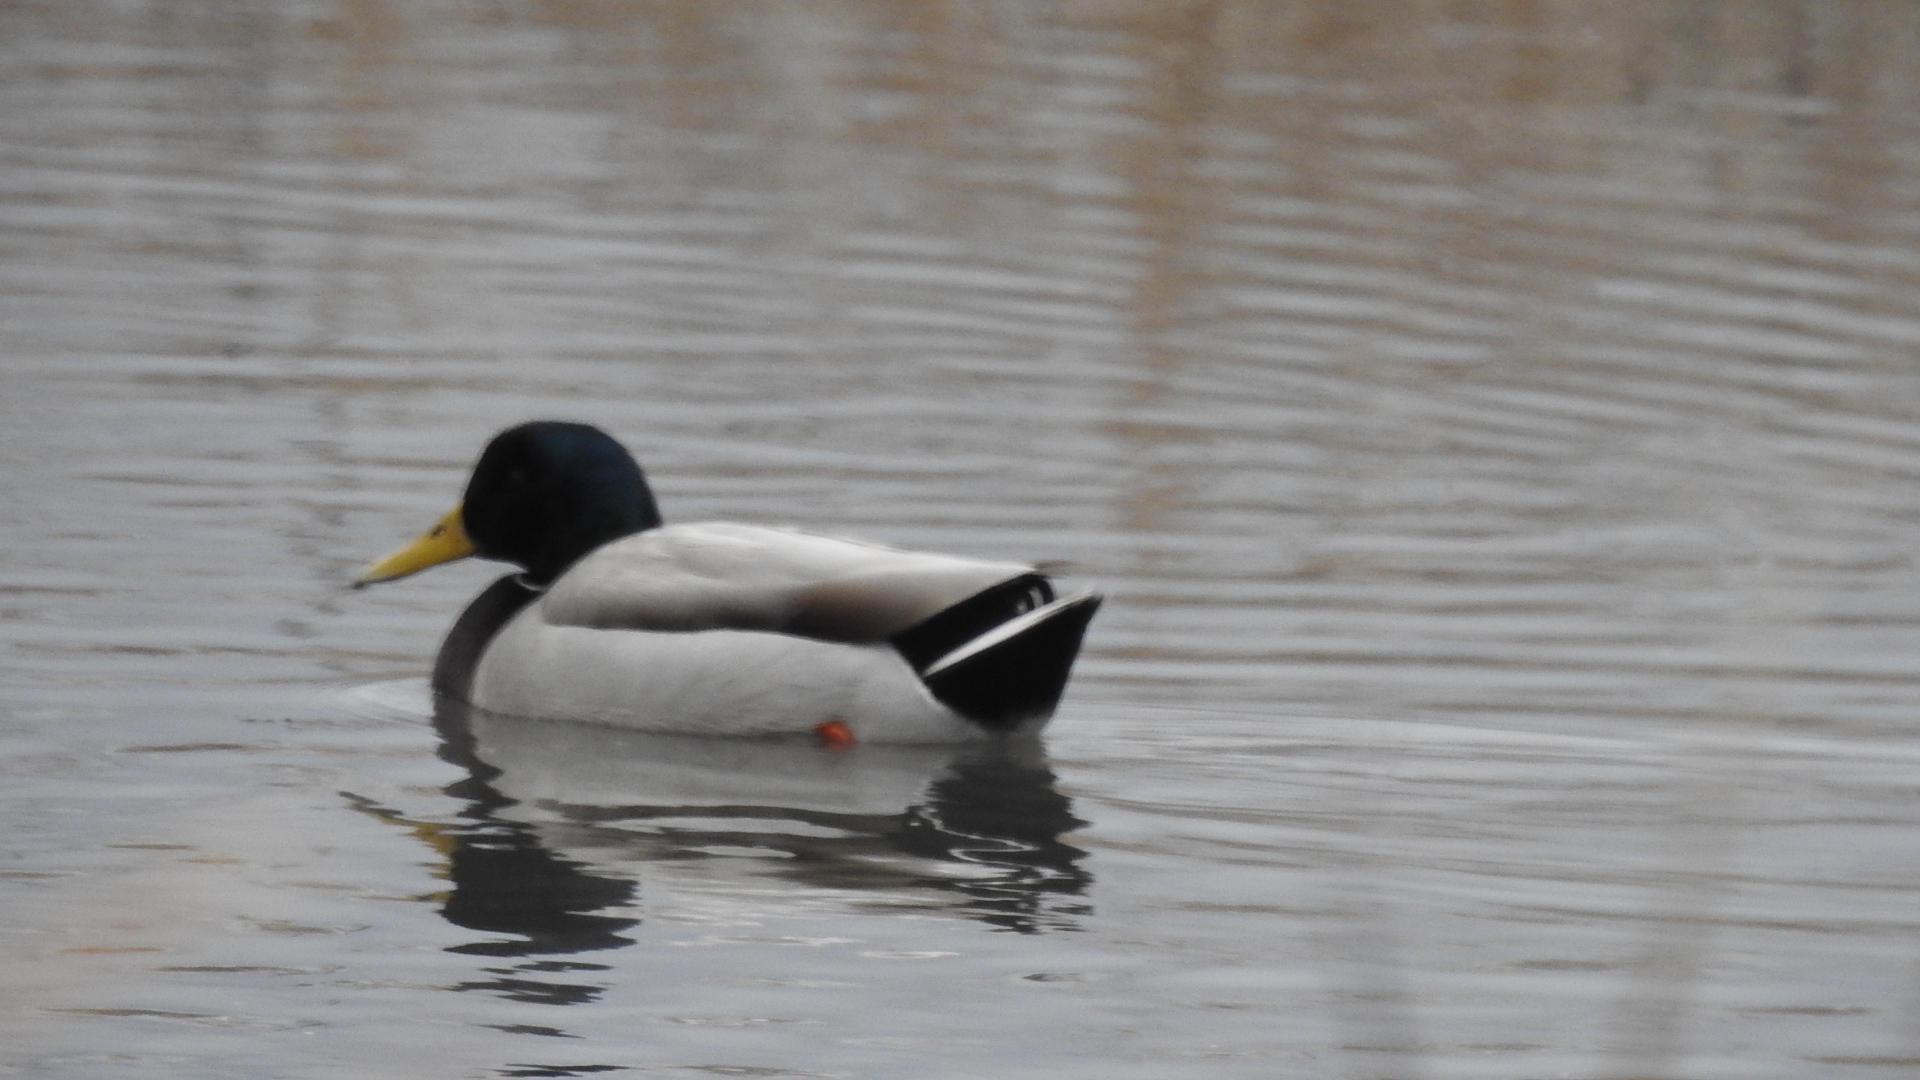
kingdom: Animalia
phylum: Chordata
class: Aves
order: Anseriformes
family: Anatidae
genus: Anas
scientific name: Anas platyrhynchos
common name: Mallard
